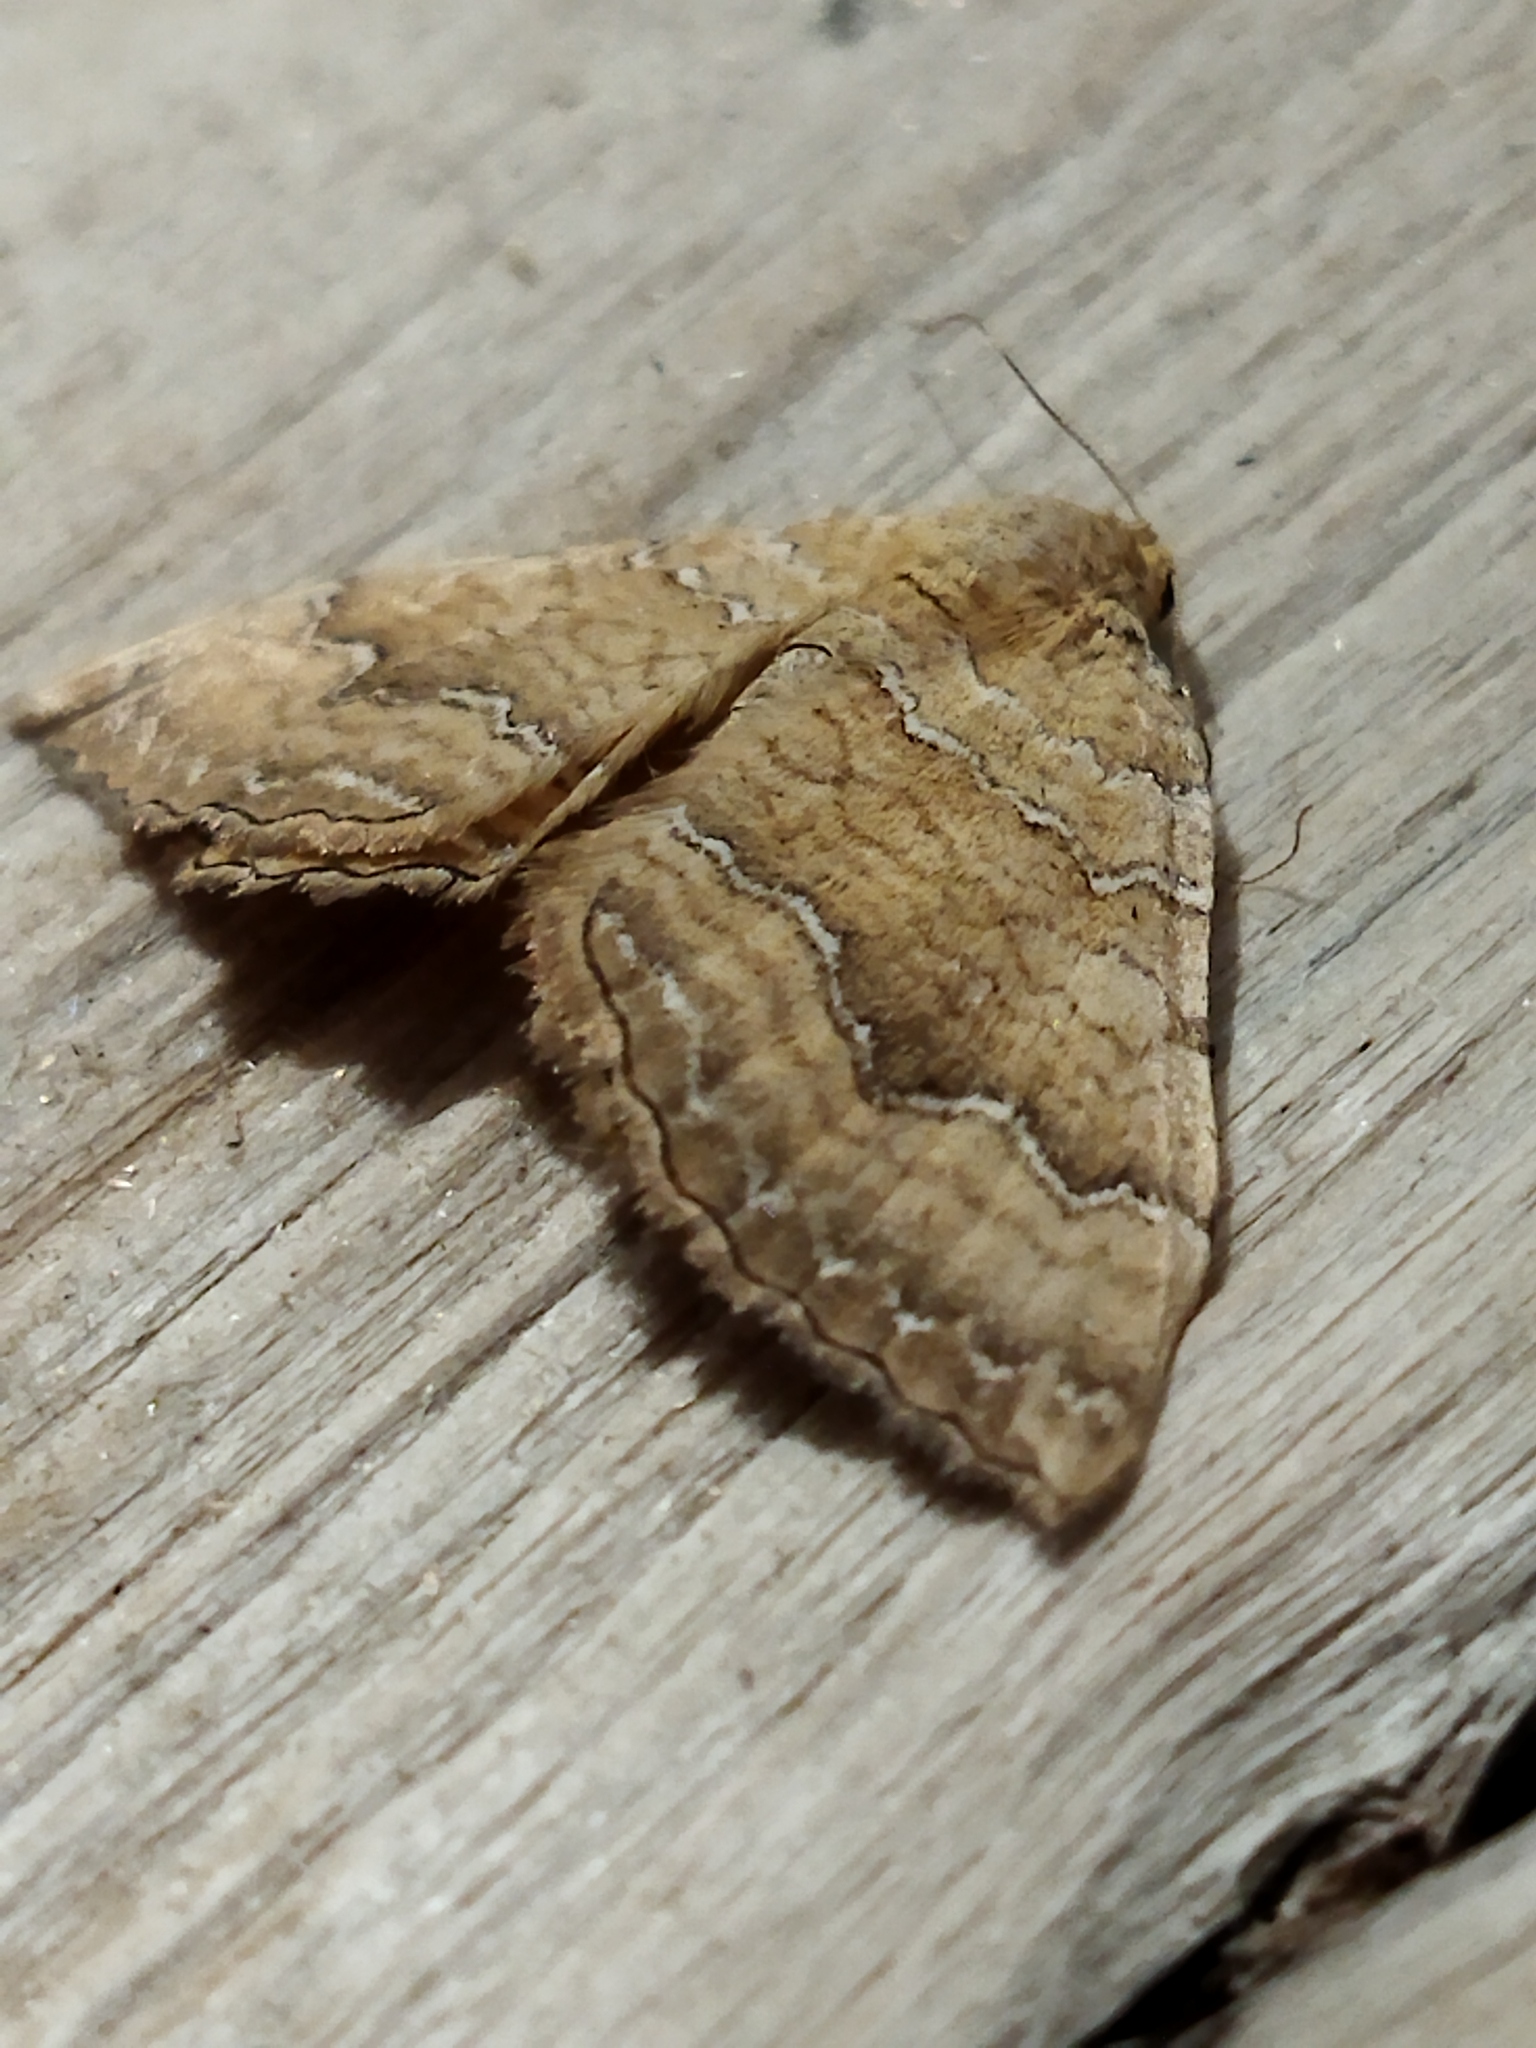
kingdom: Animalia
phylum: Arthropoda
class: Insecta
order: Lepidoptera
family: Geometridae
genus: Camptogramma
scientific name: Camptogramma bilineata
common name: Yellow shell
